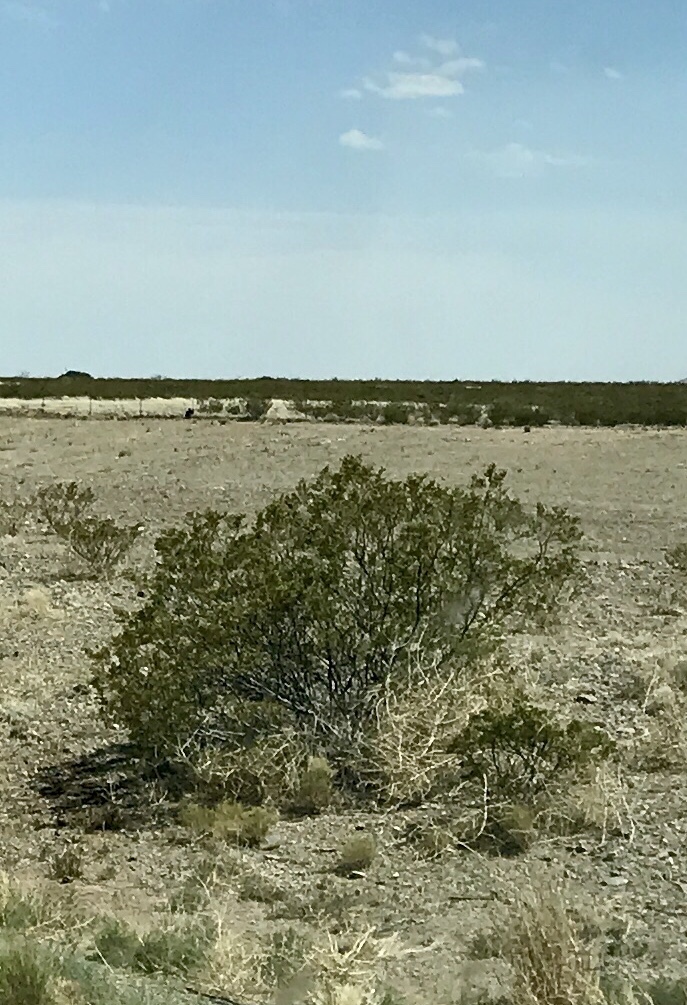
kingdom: Plantae
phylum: Tracheophyta
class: Magnoliopsida
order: Zygophyllales
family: Zygophyllaceae
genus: Larrea
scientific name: Larrea tridentata
